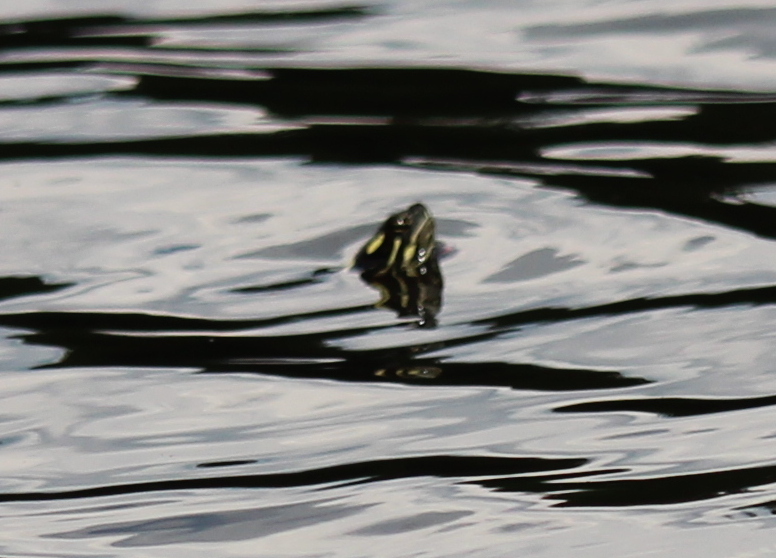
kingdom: Animalia
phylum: Chordata
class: Testudines
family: Emydidae
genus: Chrysemys
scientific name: Chrysemys picta
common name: Painted turtle
